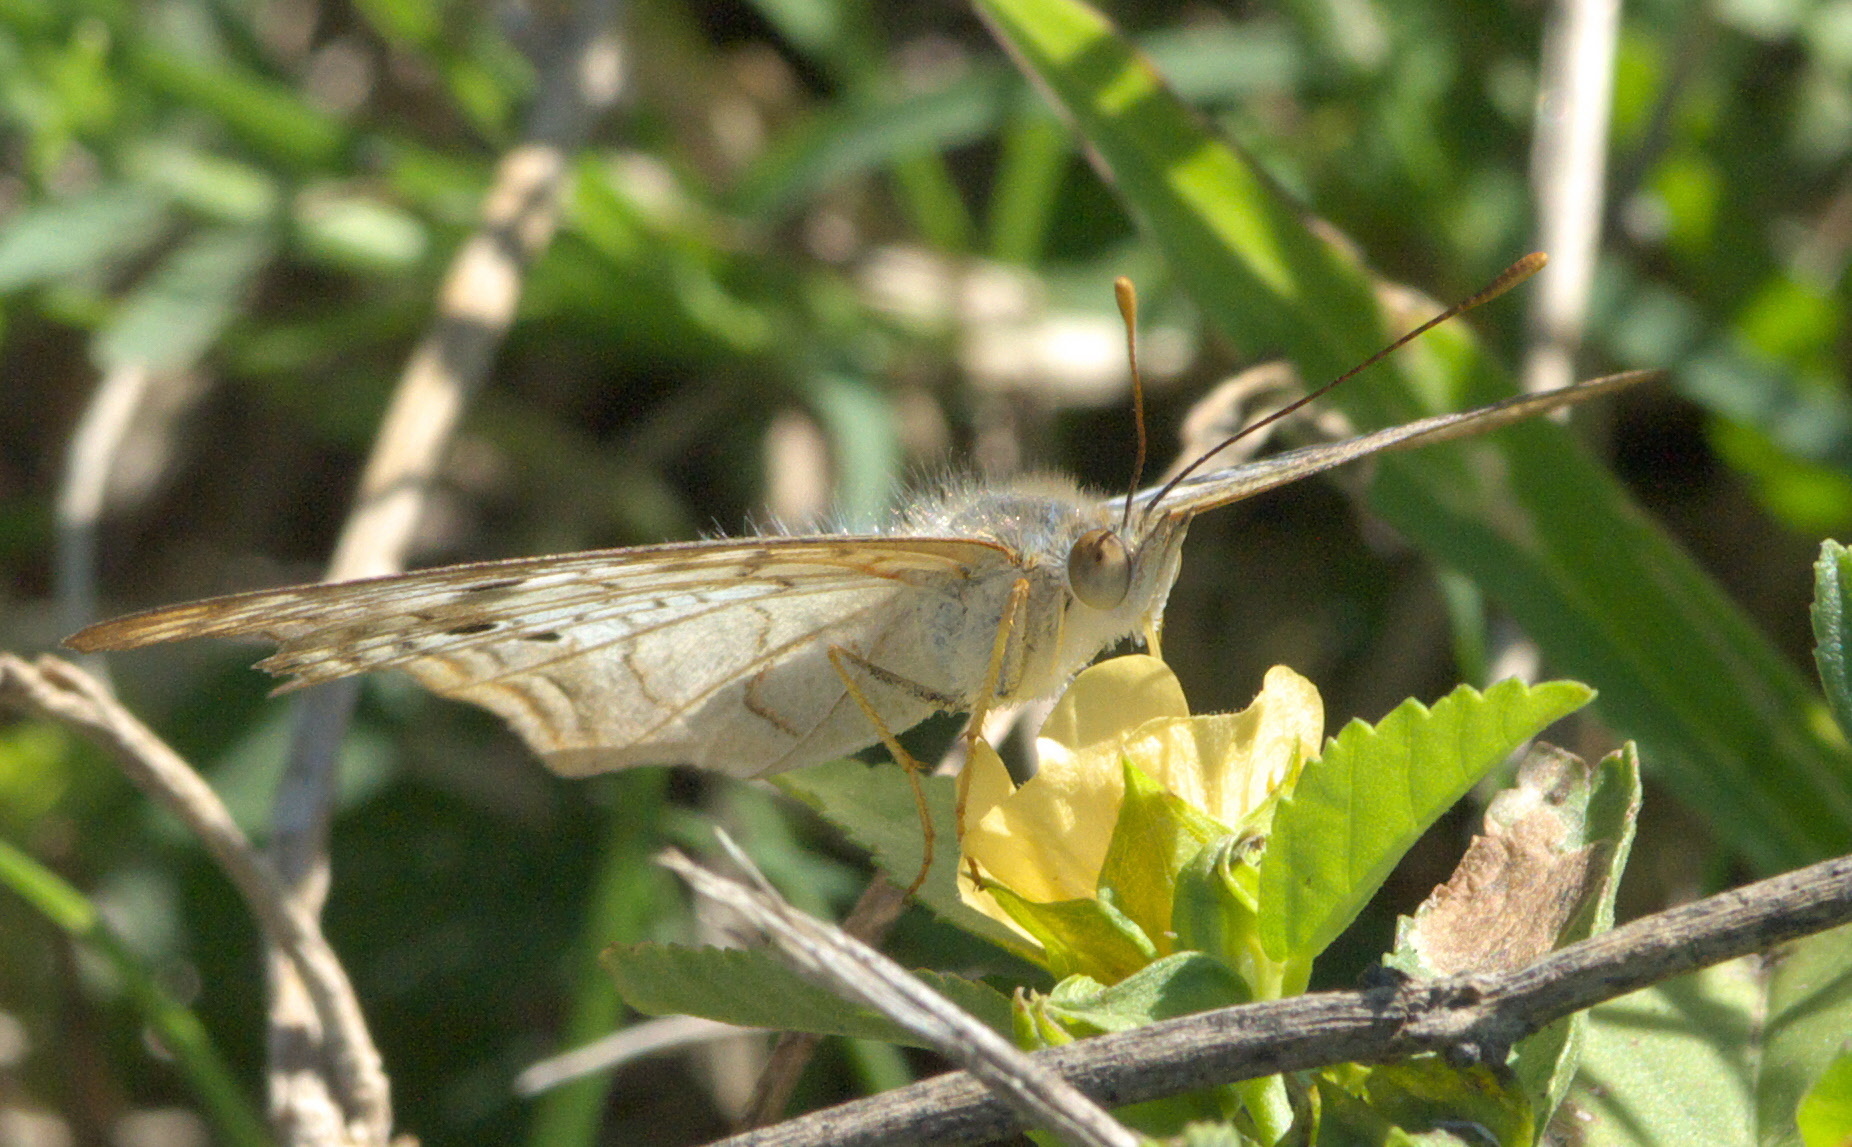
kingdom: Animalia
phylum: Arthropoda
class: Insecta
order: Lepidoptera
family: Nymphalidae
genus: Anartia
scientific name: Anartia jatrophae
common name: White peacock
